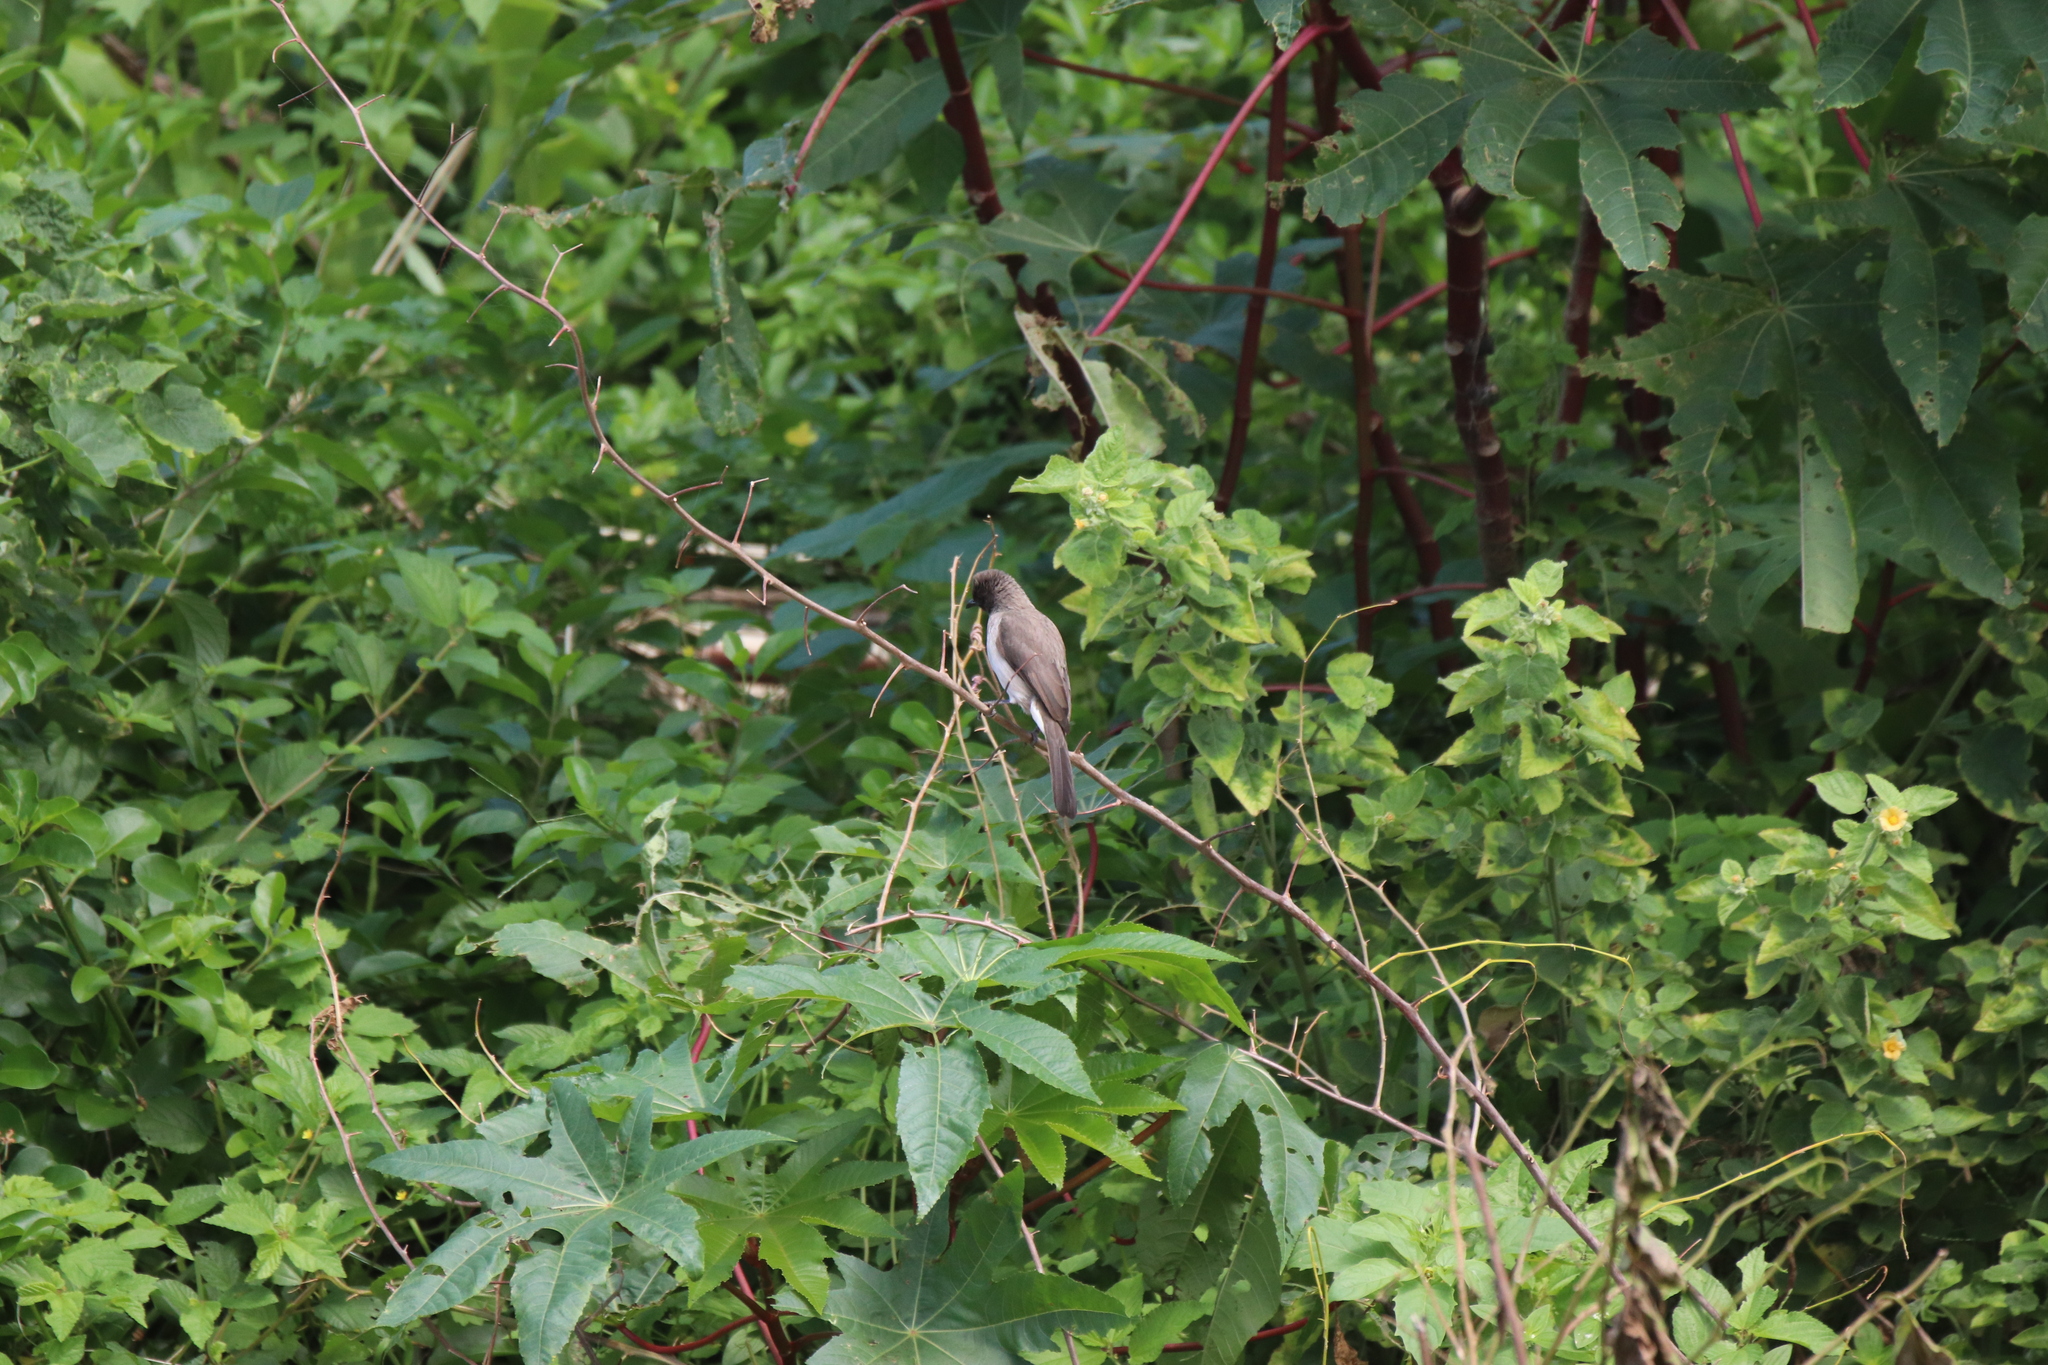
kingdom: Animalia
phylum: Chordata
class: Aves
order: Passeriformes
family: Pycnonotidae
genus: Pycnonotus
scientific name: Pycnonotus barbatus
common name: Common bulbul
